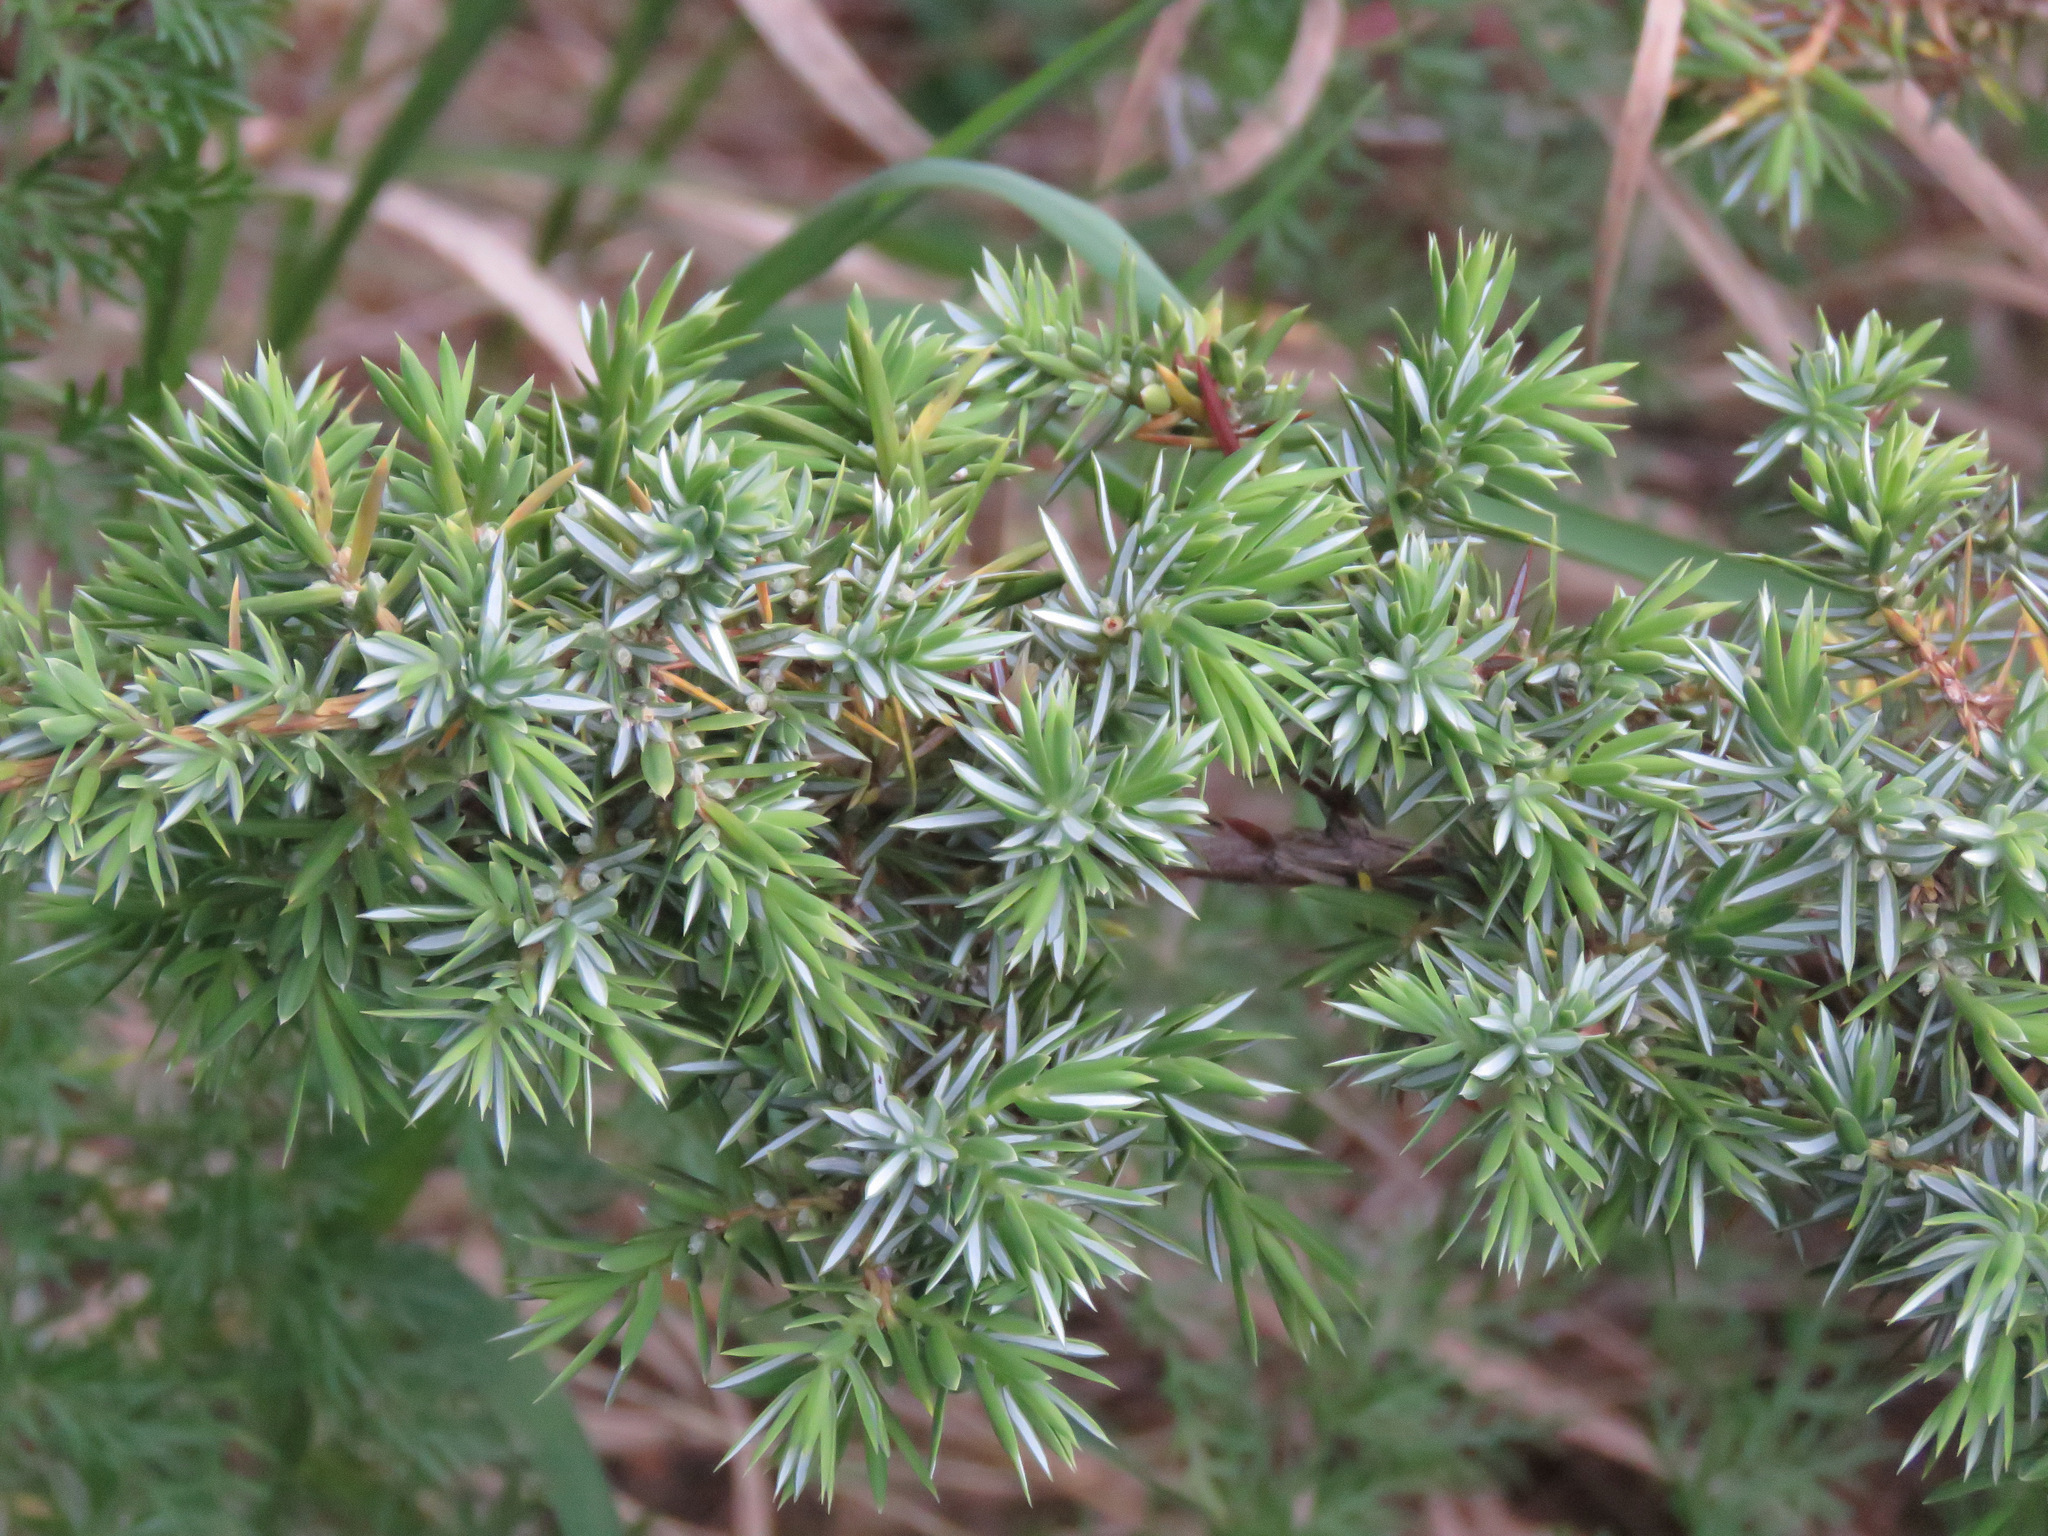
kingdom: Plantae
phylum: Tracheophyta
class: Pinopsida
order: Pinales
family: Cupressaceae
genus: Juniperus
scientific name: Juniperus communis
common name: Common juniper
